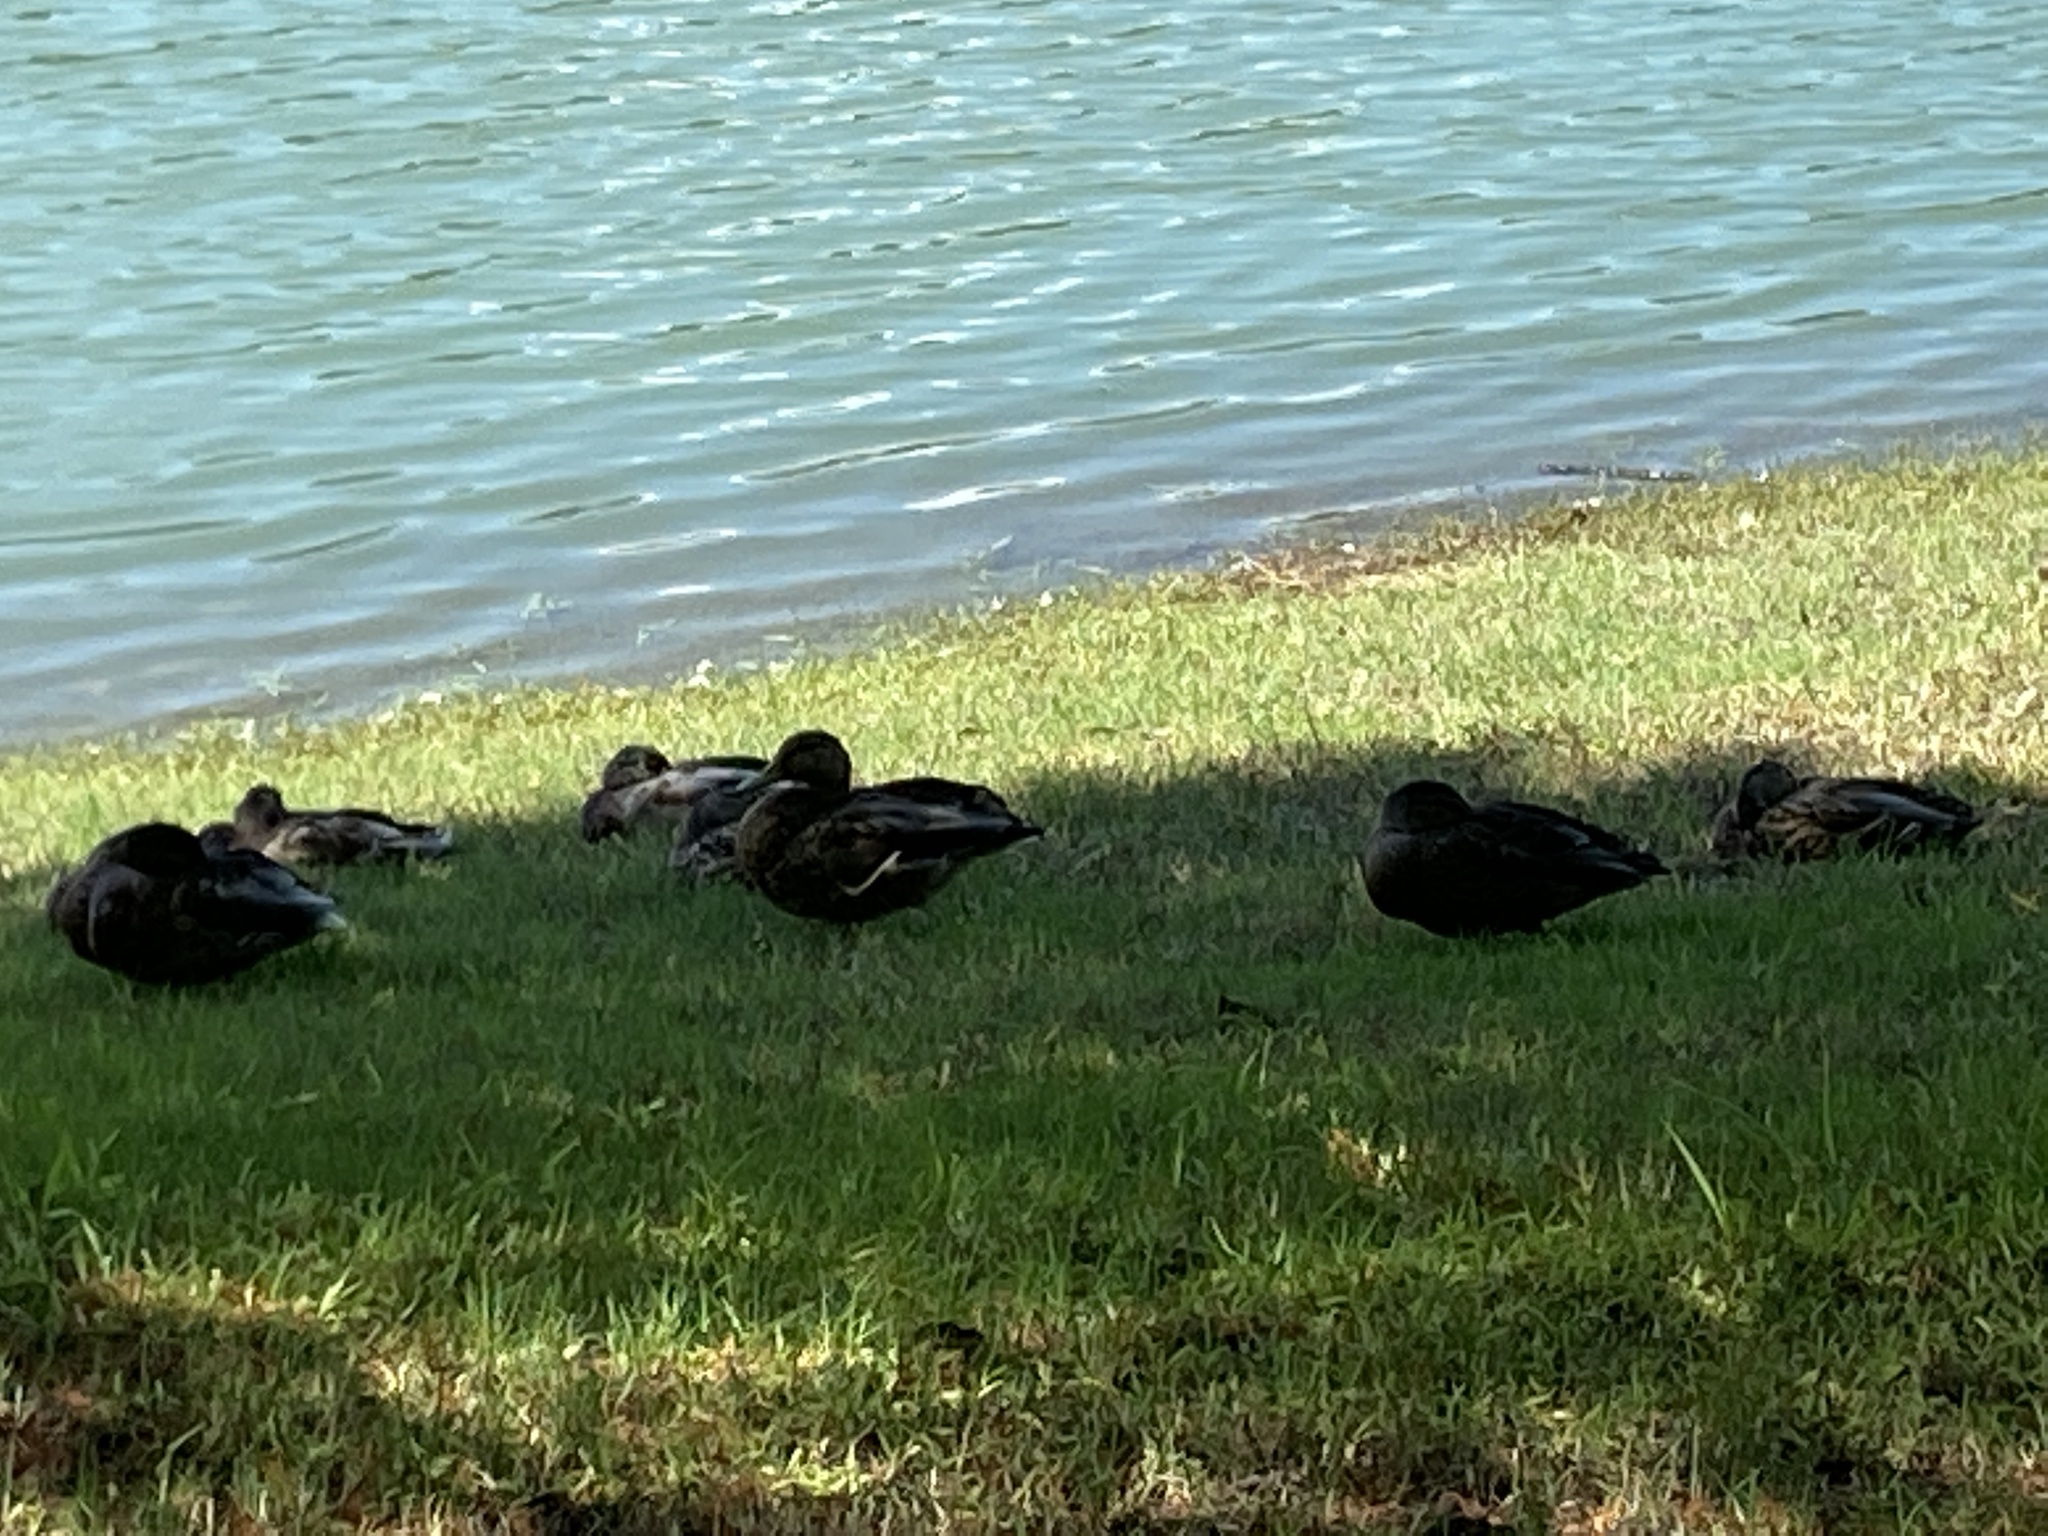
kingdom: Animalia
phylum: Chordata
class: Aves
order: Anseriformes
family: Anatidae
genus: Anas
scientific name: Anas platyrhynchos
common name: Mallard
